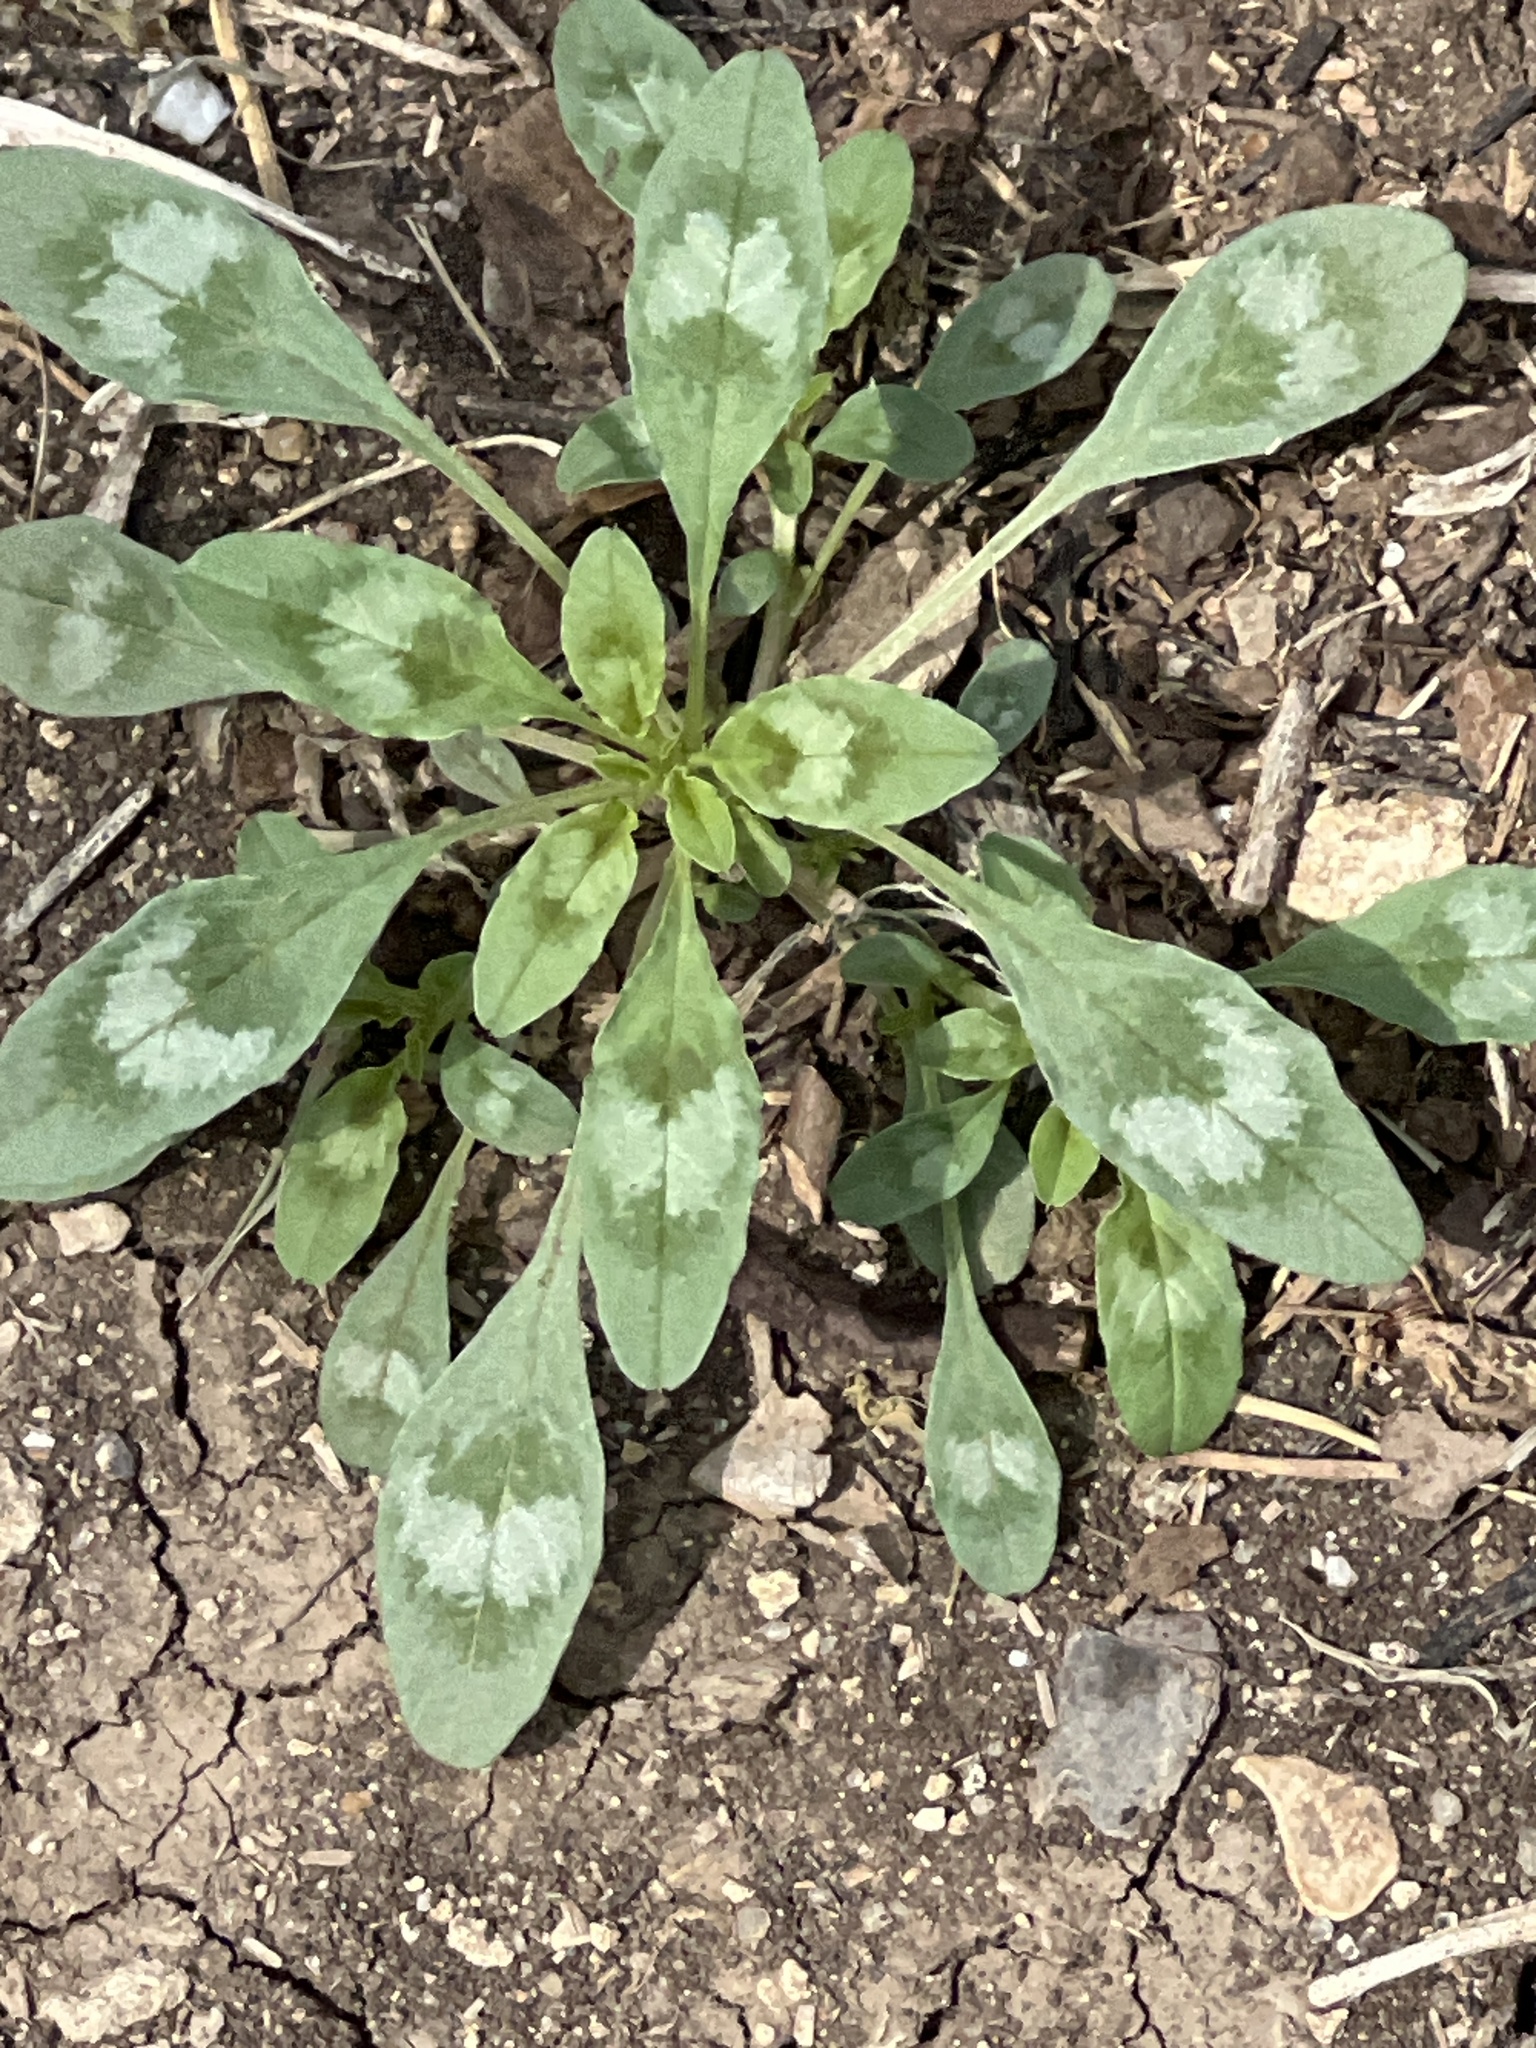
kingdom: Plantae
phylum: Tracheophyta
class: Magnoliopsida
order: Caryophyllales
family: Amaranthaceae
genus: Amaranthus
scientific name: Amaranthus polygonoides
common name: Tropical amaranth
